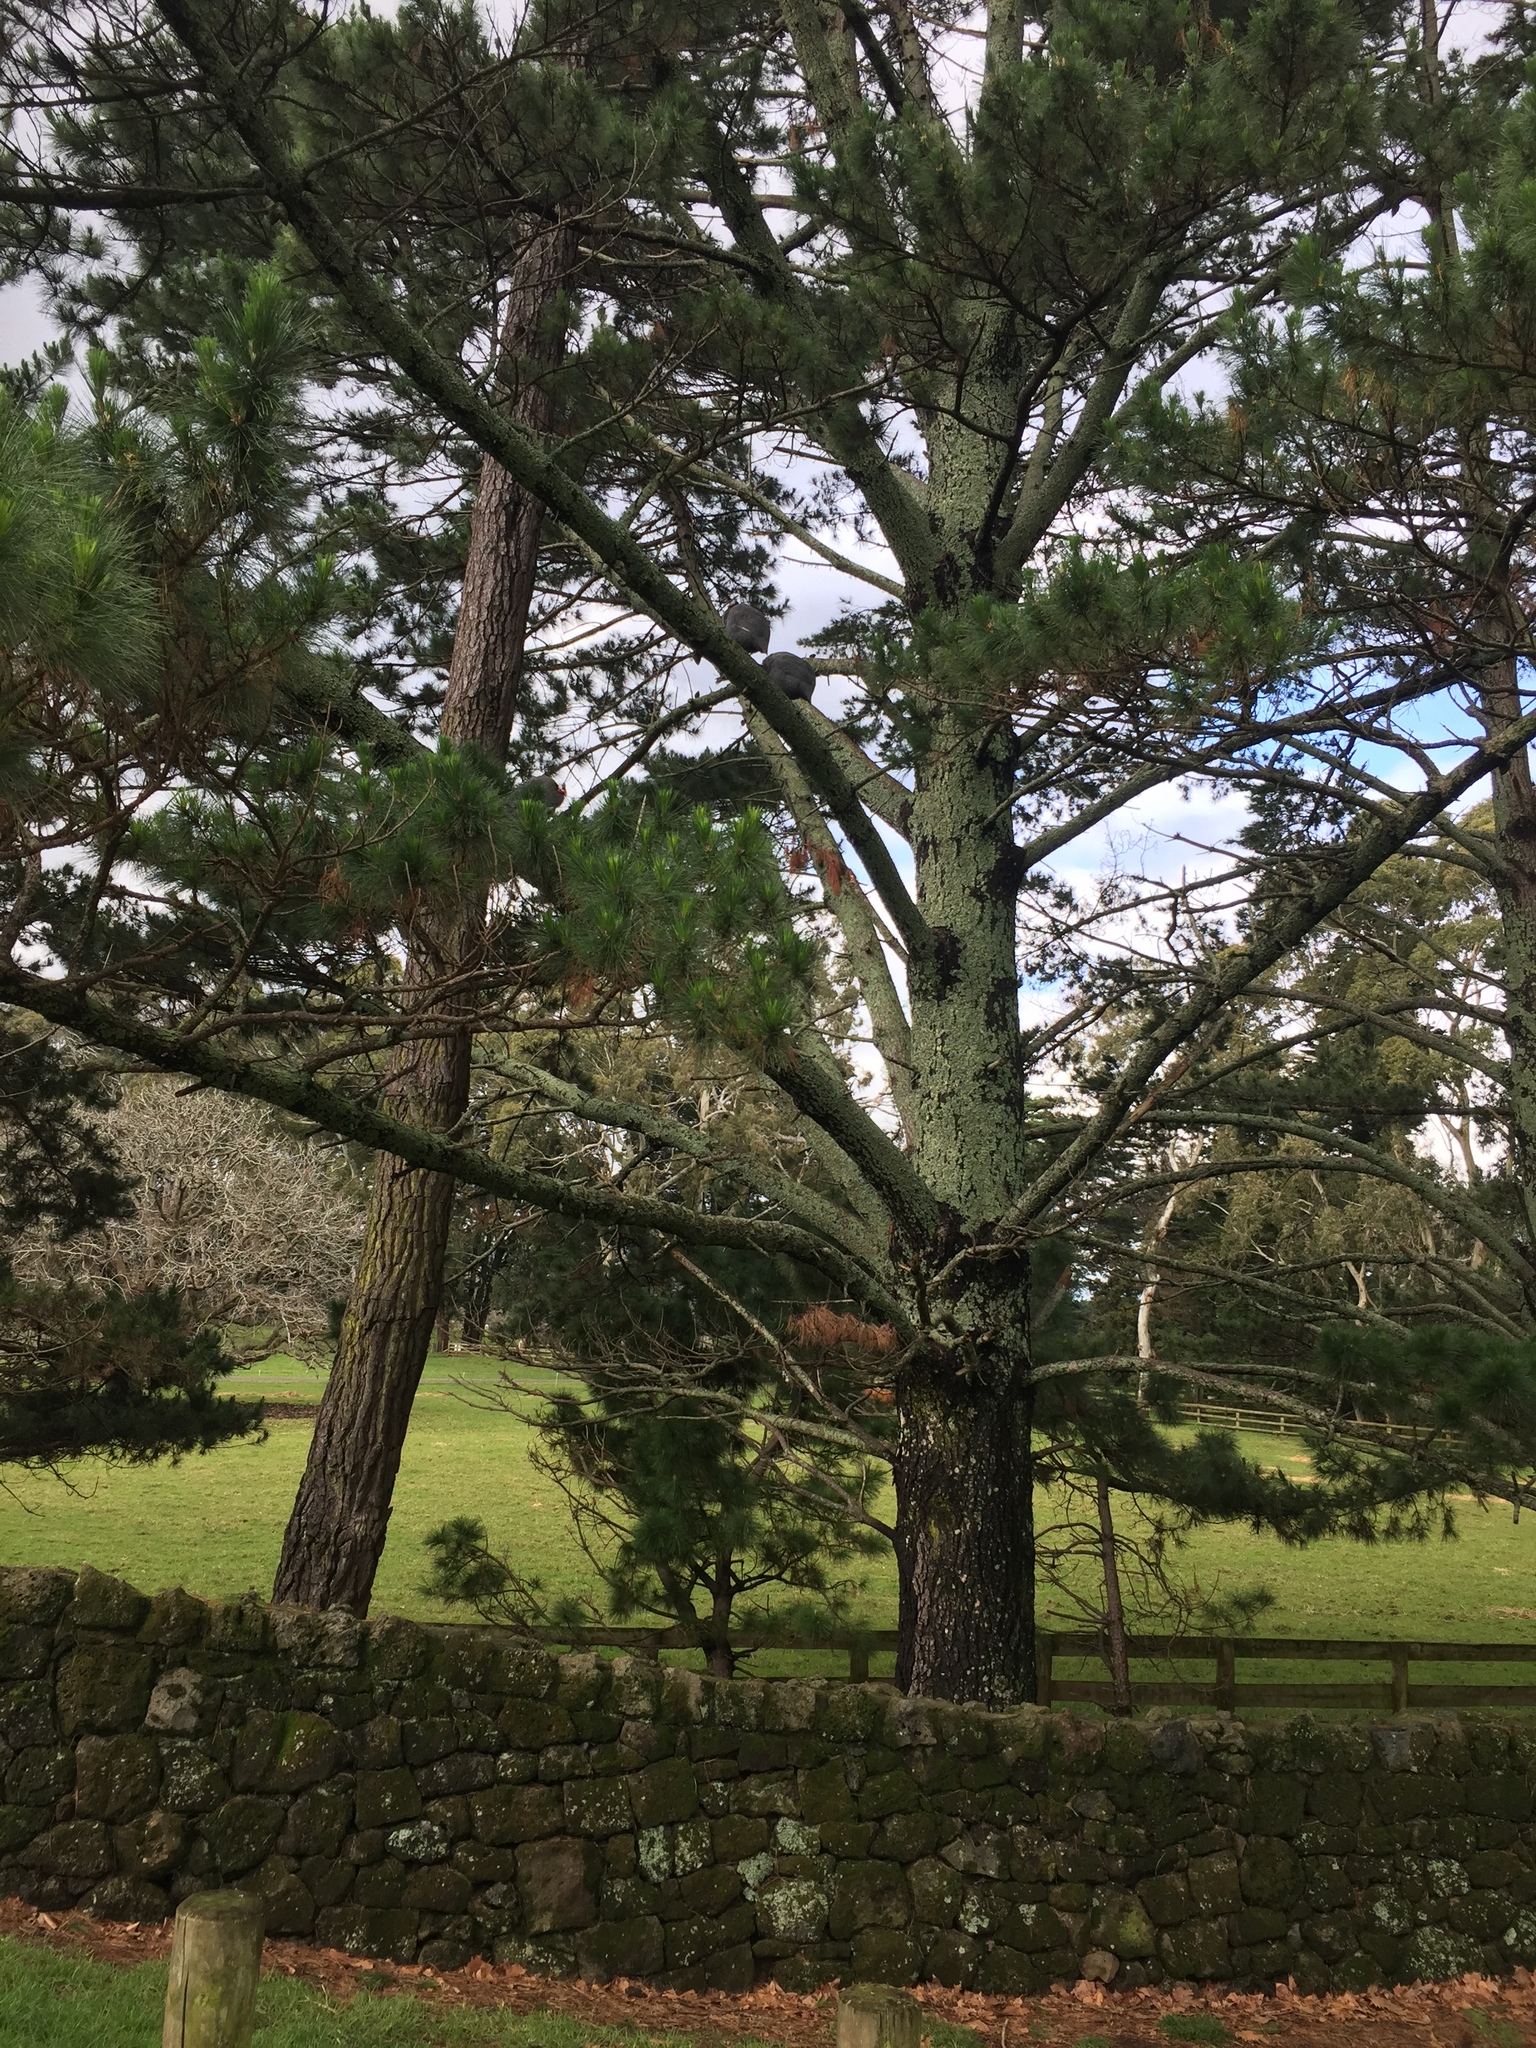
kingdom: Animalia
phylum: Chordata
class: Aves
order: Galliformes
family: Numididae
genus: Numida
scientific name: Numida meleagris
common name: Helmeted guineafowl
